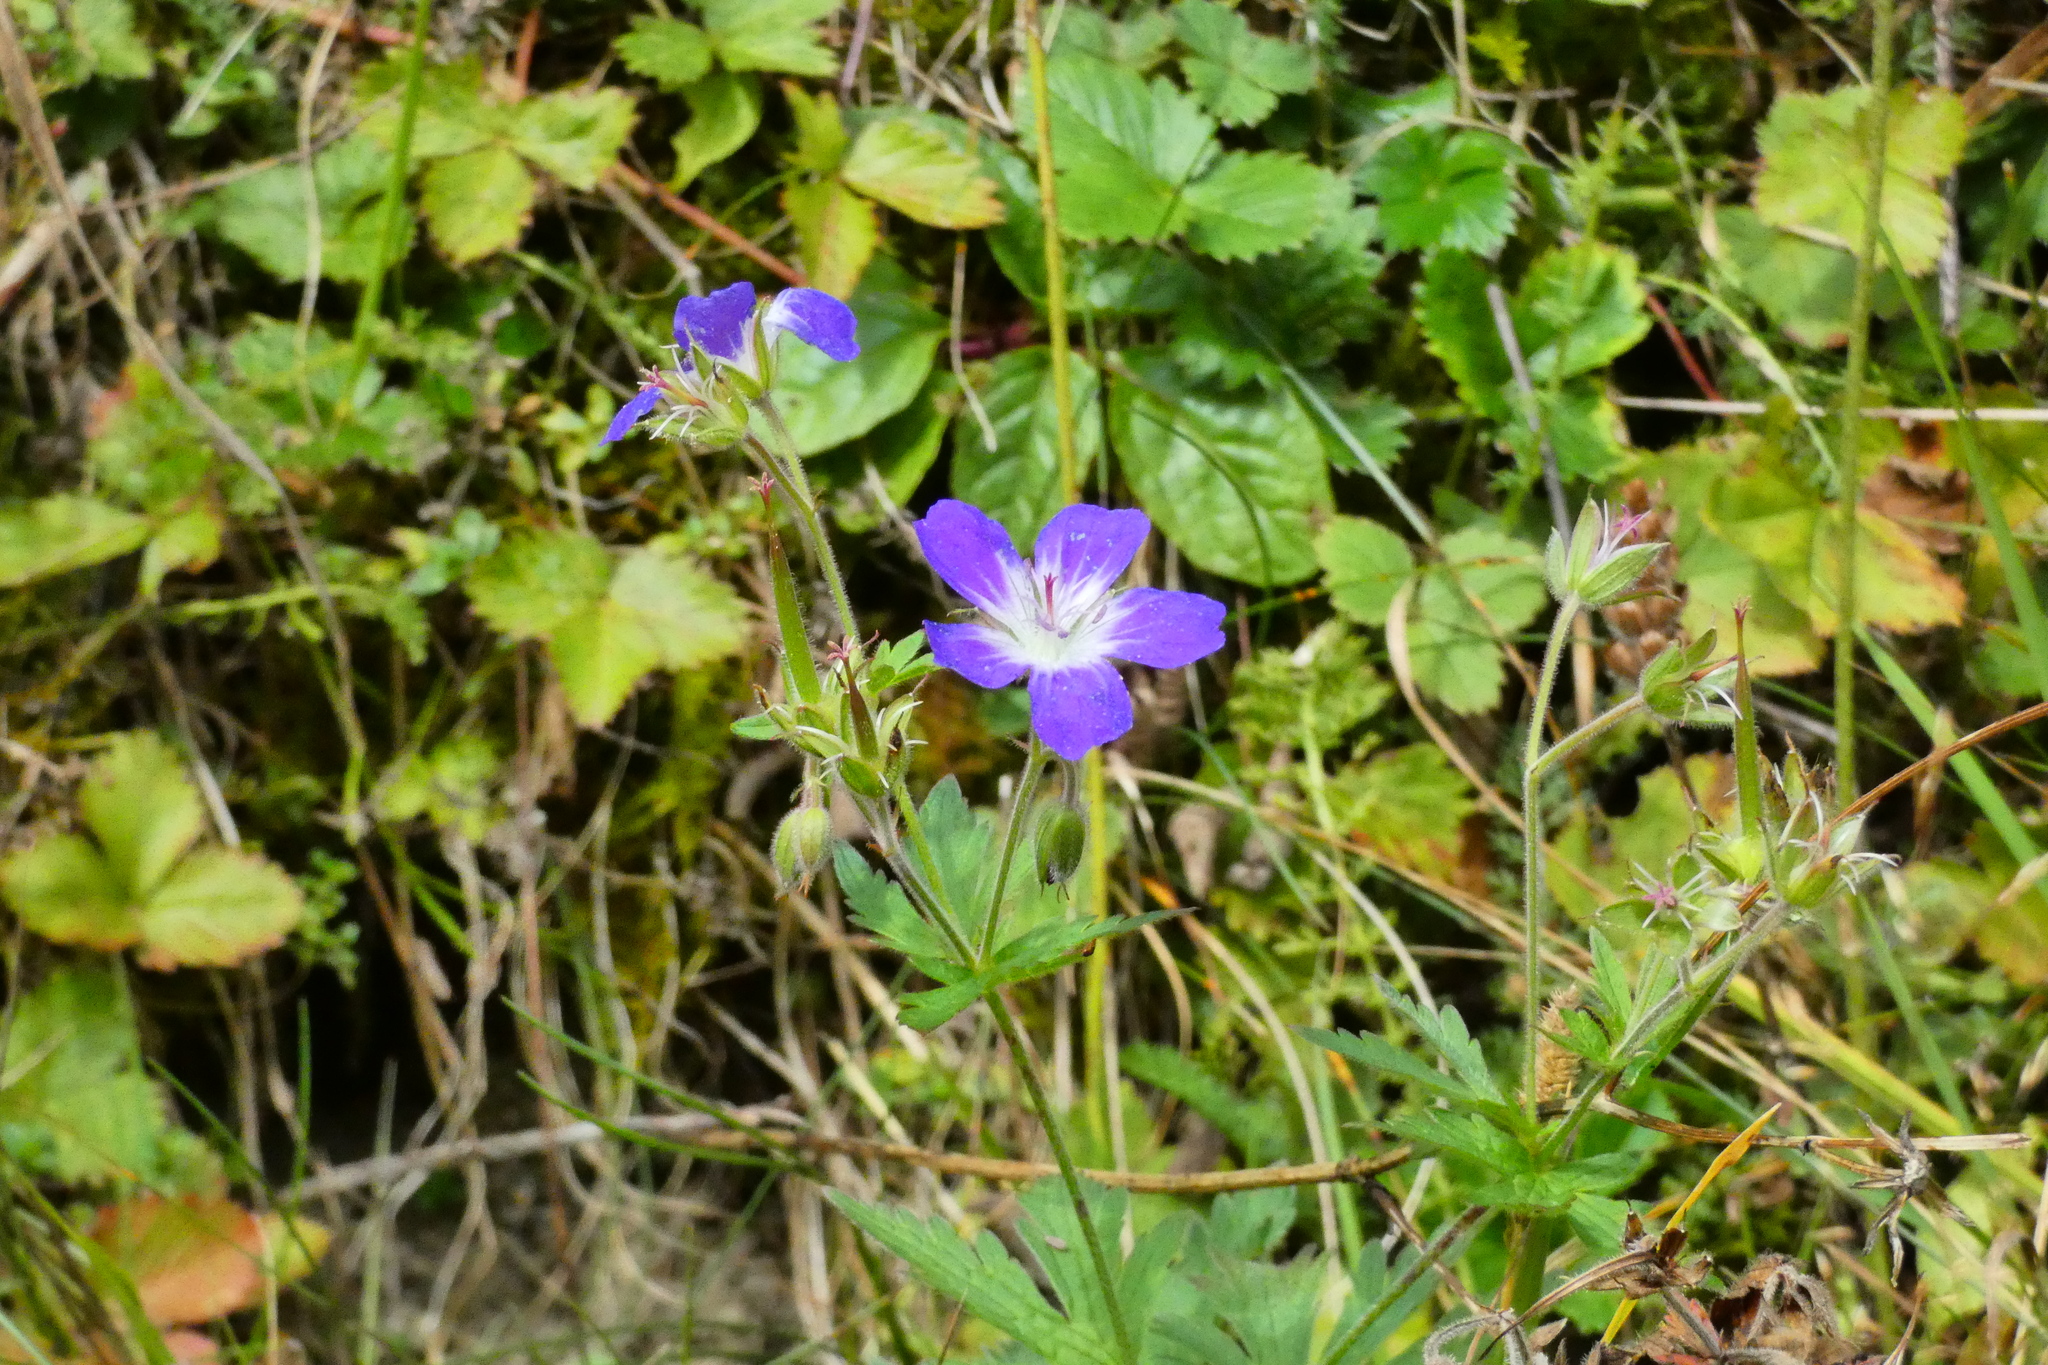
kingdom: Plantae
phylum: Tracheophyta
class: Magnoliopsida
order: Geraniales
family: Geraniaceae
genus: Geranium
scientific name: Geranium sylvaticum
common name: Wood crane's-bill
